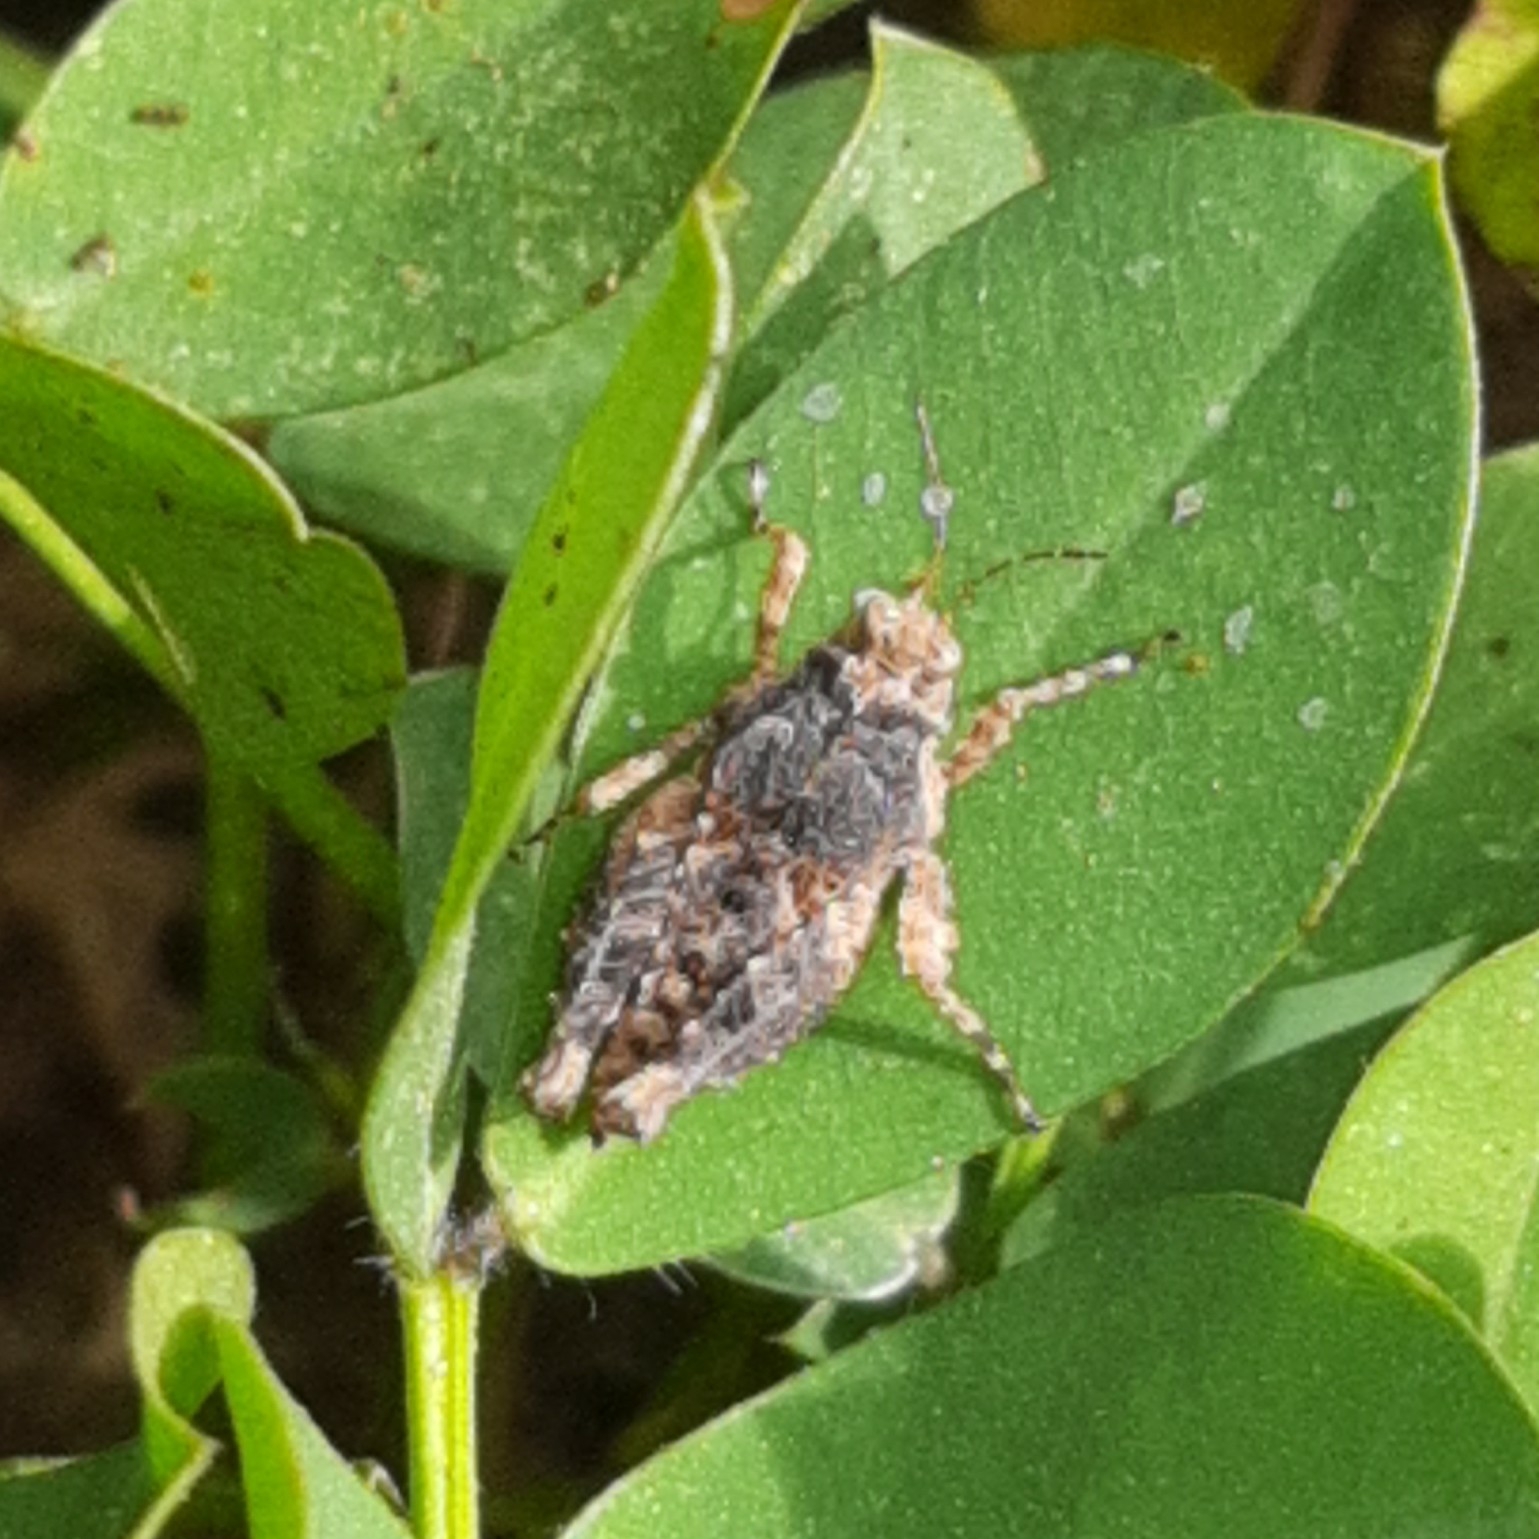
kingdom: Animalia
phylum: Arthropoda
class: Insecta
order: Orthoptera
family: Tetrigidae
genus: Paratettix
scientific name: Paratettix mexicanus
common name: Mexican pygmy grasshopper
